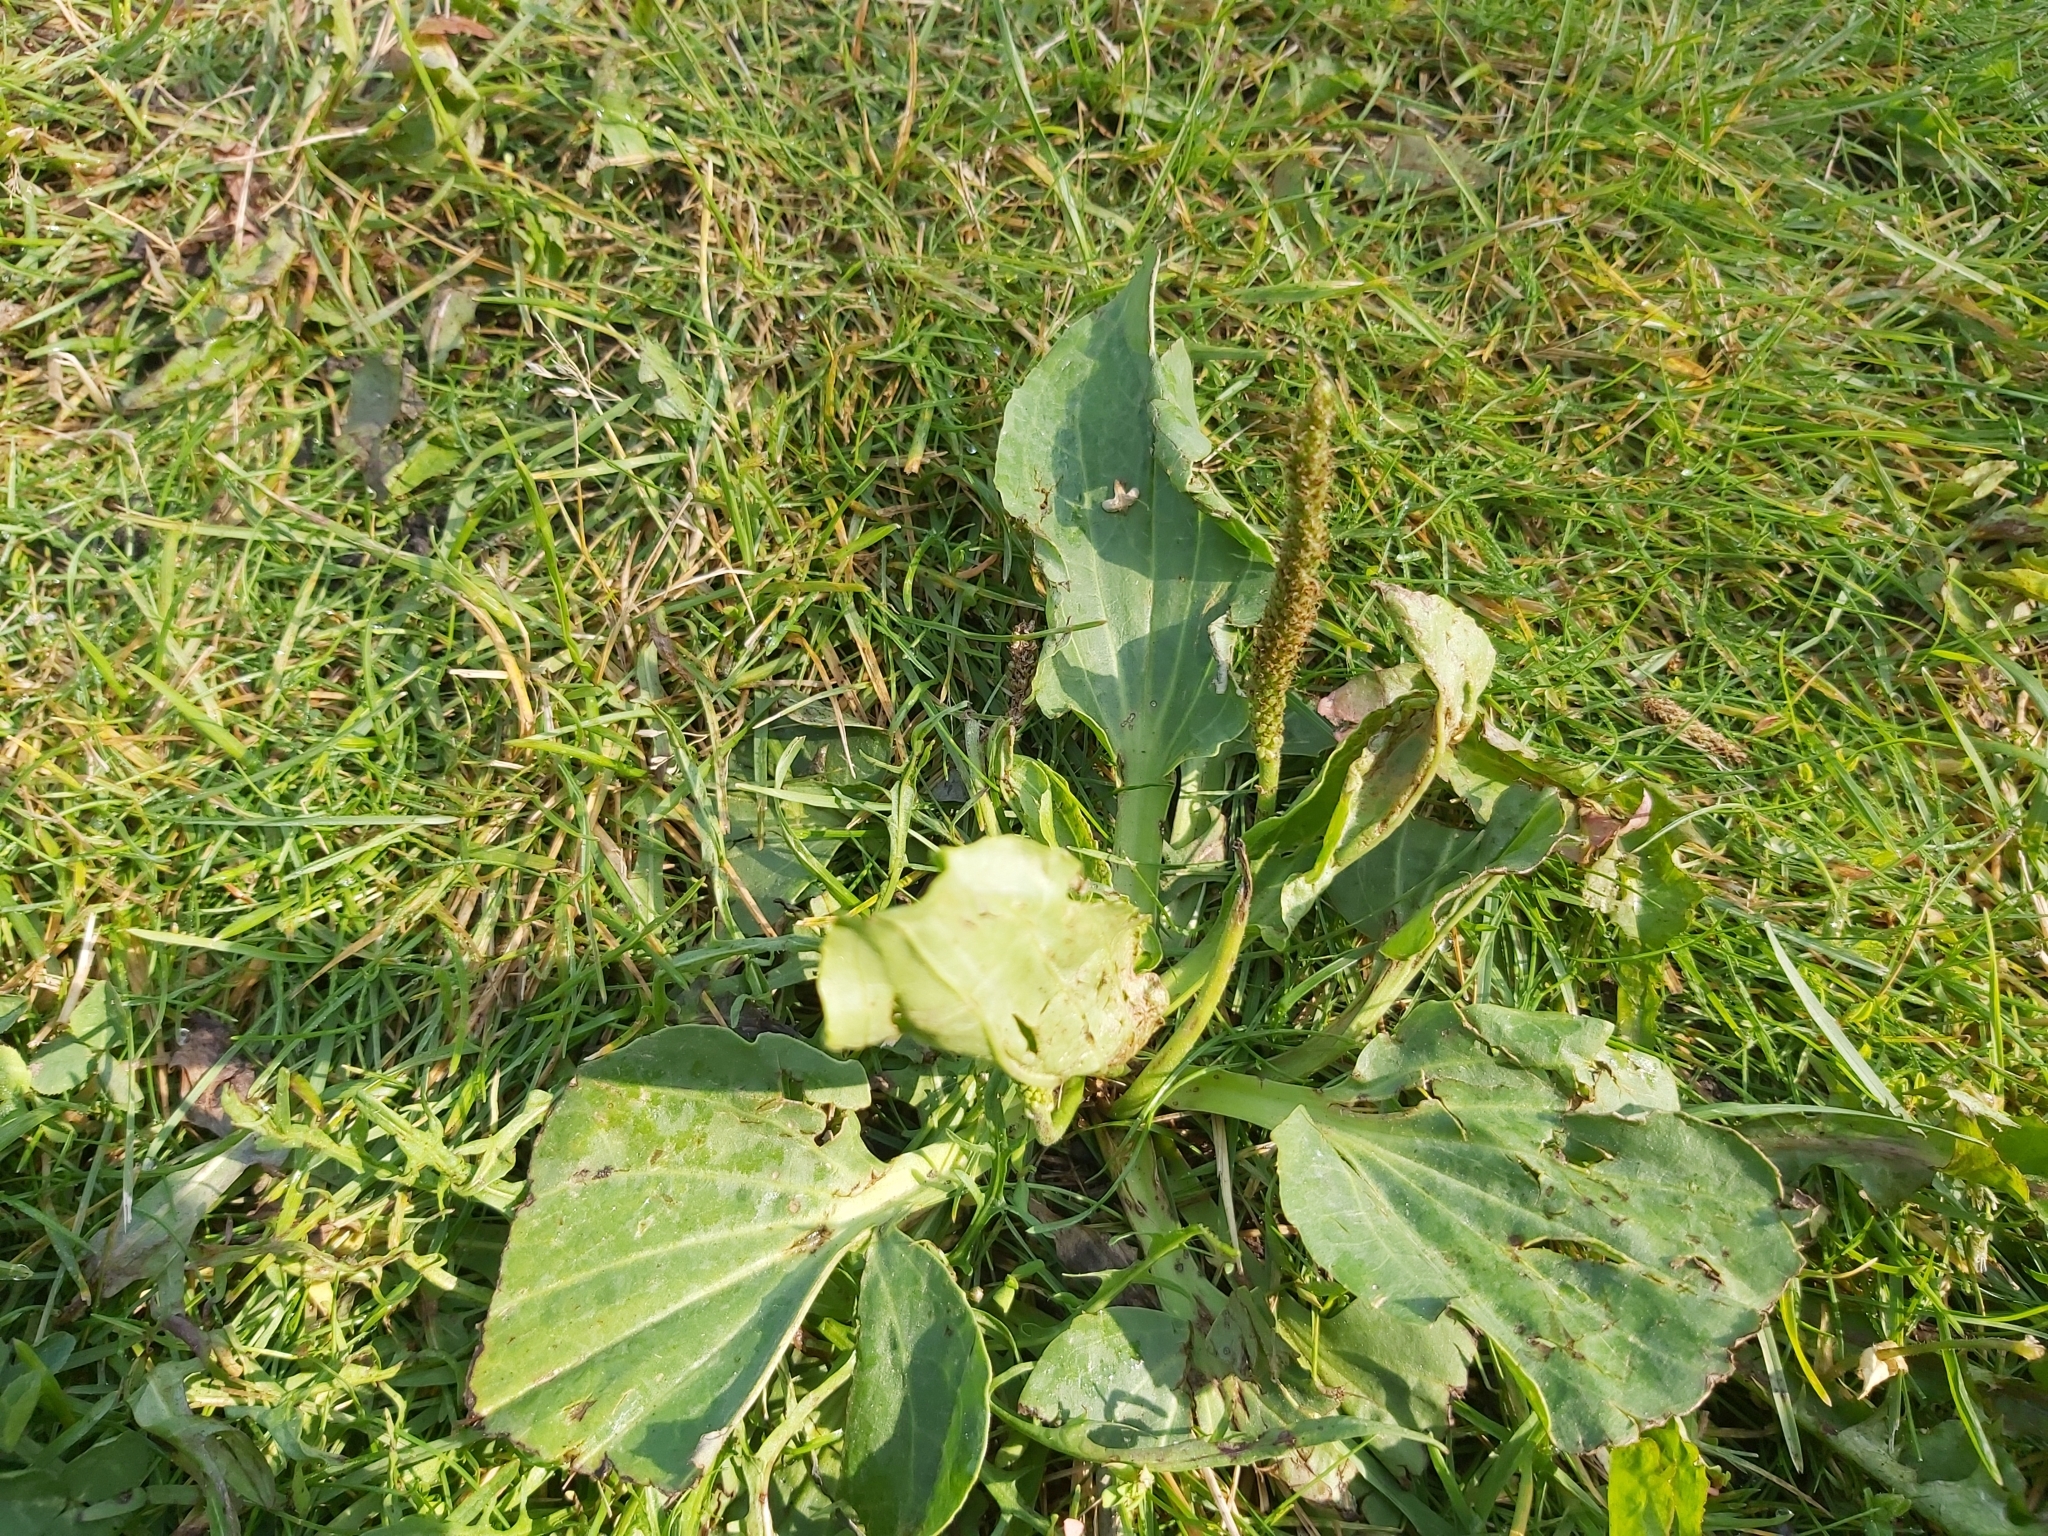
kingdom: Plantae
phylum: Tracheophyta
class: Magnoliopsida
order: Lamiales
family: Plantaginaceae
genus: Plantago
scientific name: Plantago major
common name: Common plantain
